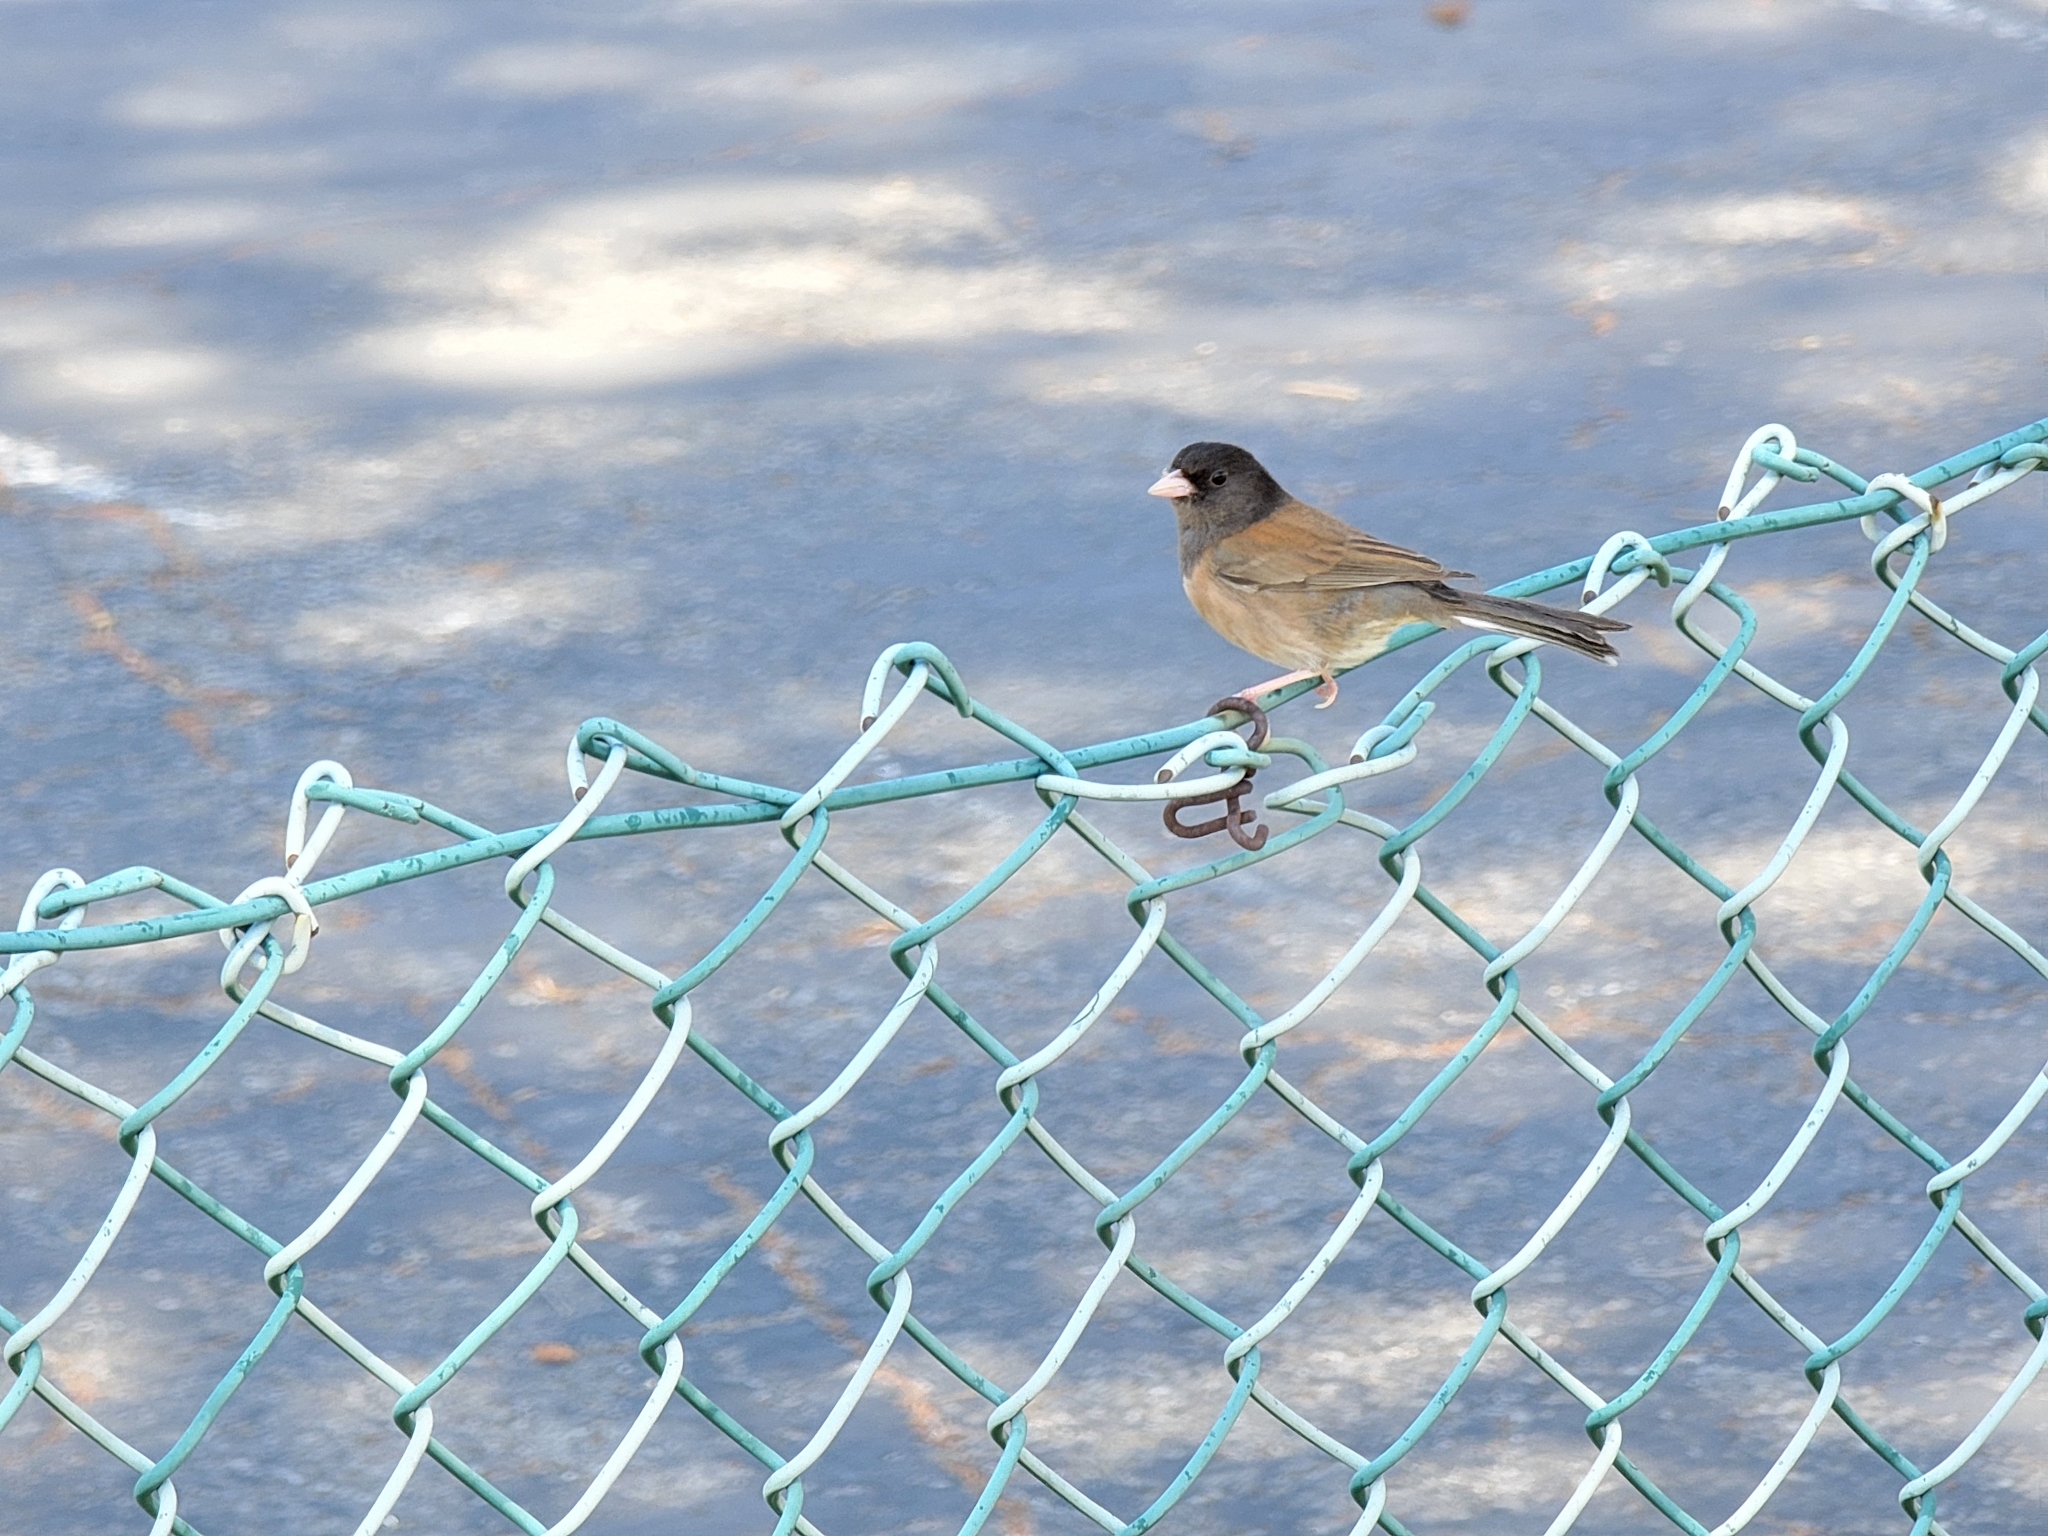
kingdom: Animalia
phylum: Chordata
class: Aves
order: Passeriformes
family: Passerellidae
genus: Junco
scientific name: Junco hyemalis
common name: Dark-eyed junco
